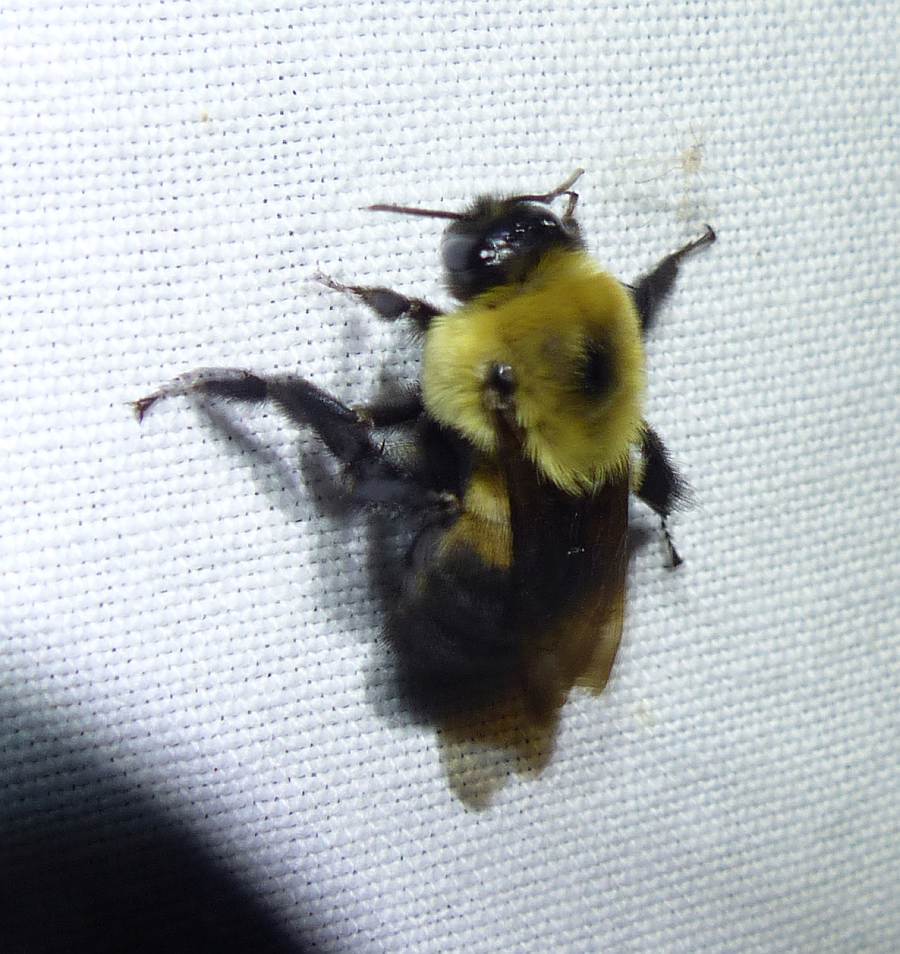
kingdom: Animalia
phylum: Arthropoda
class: Insecta
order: Hymenoptera
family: Apidae
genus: Bombus
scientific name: Bombus griseocollis
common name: Brown-belted bumble bee
